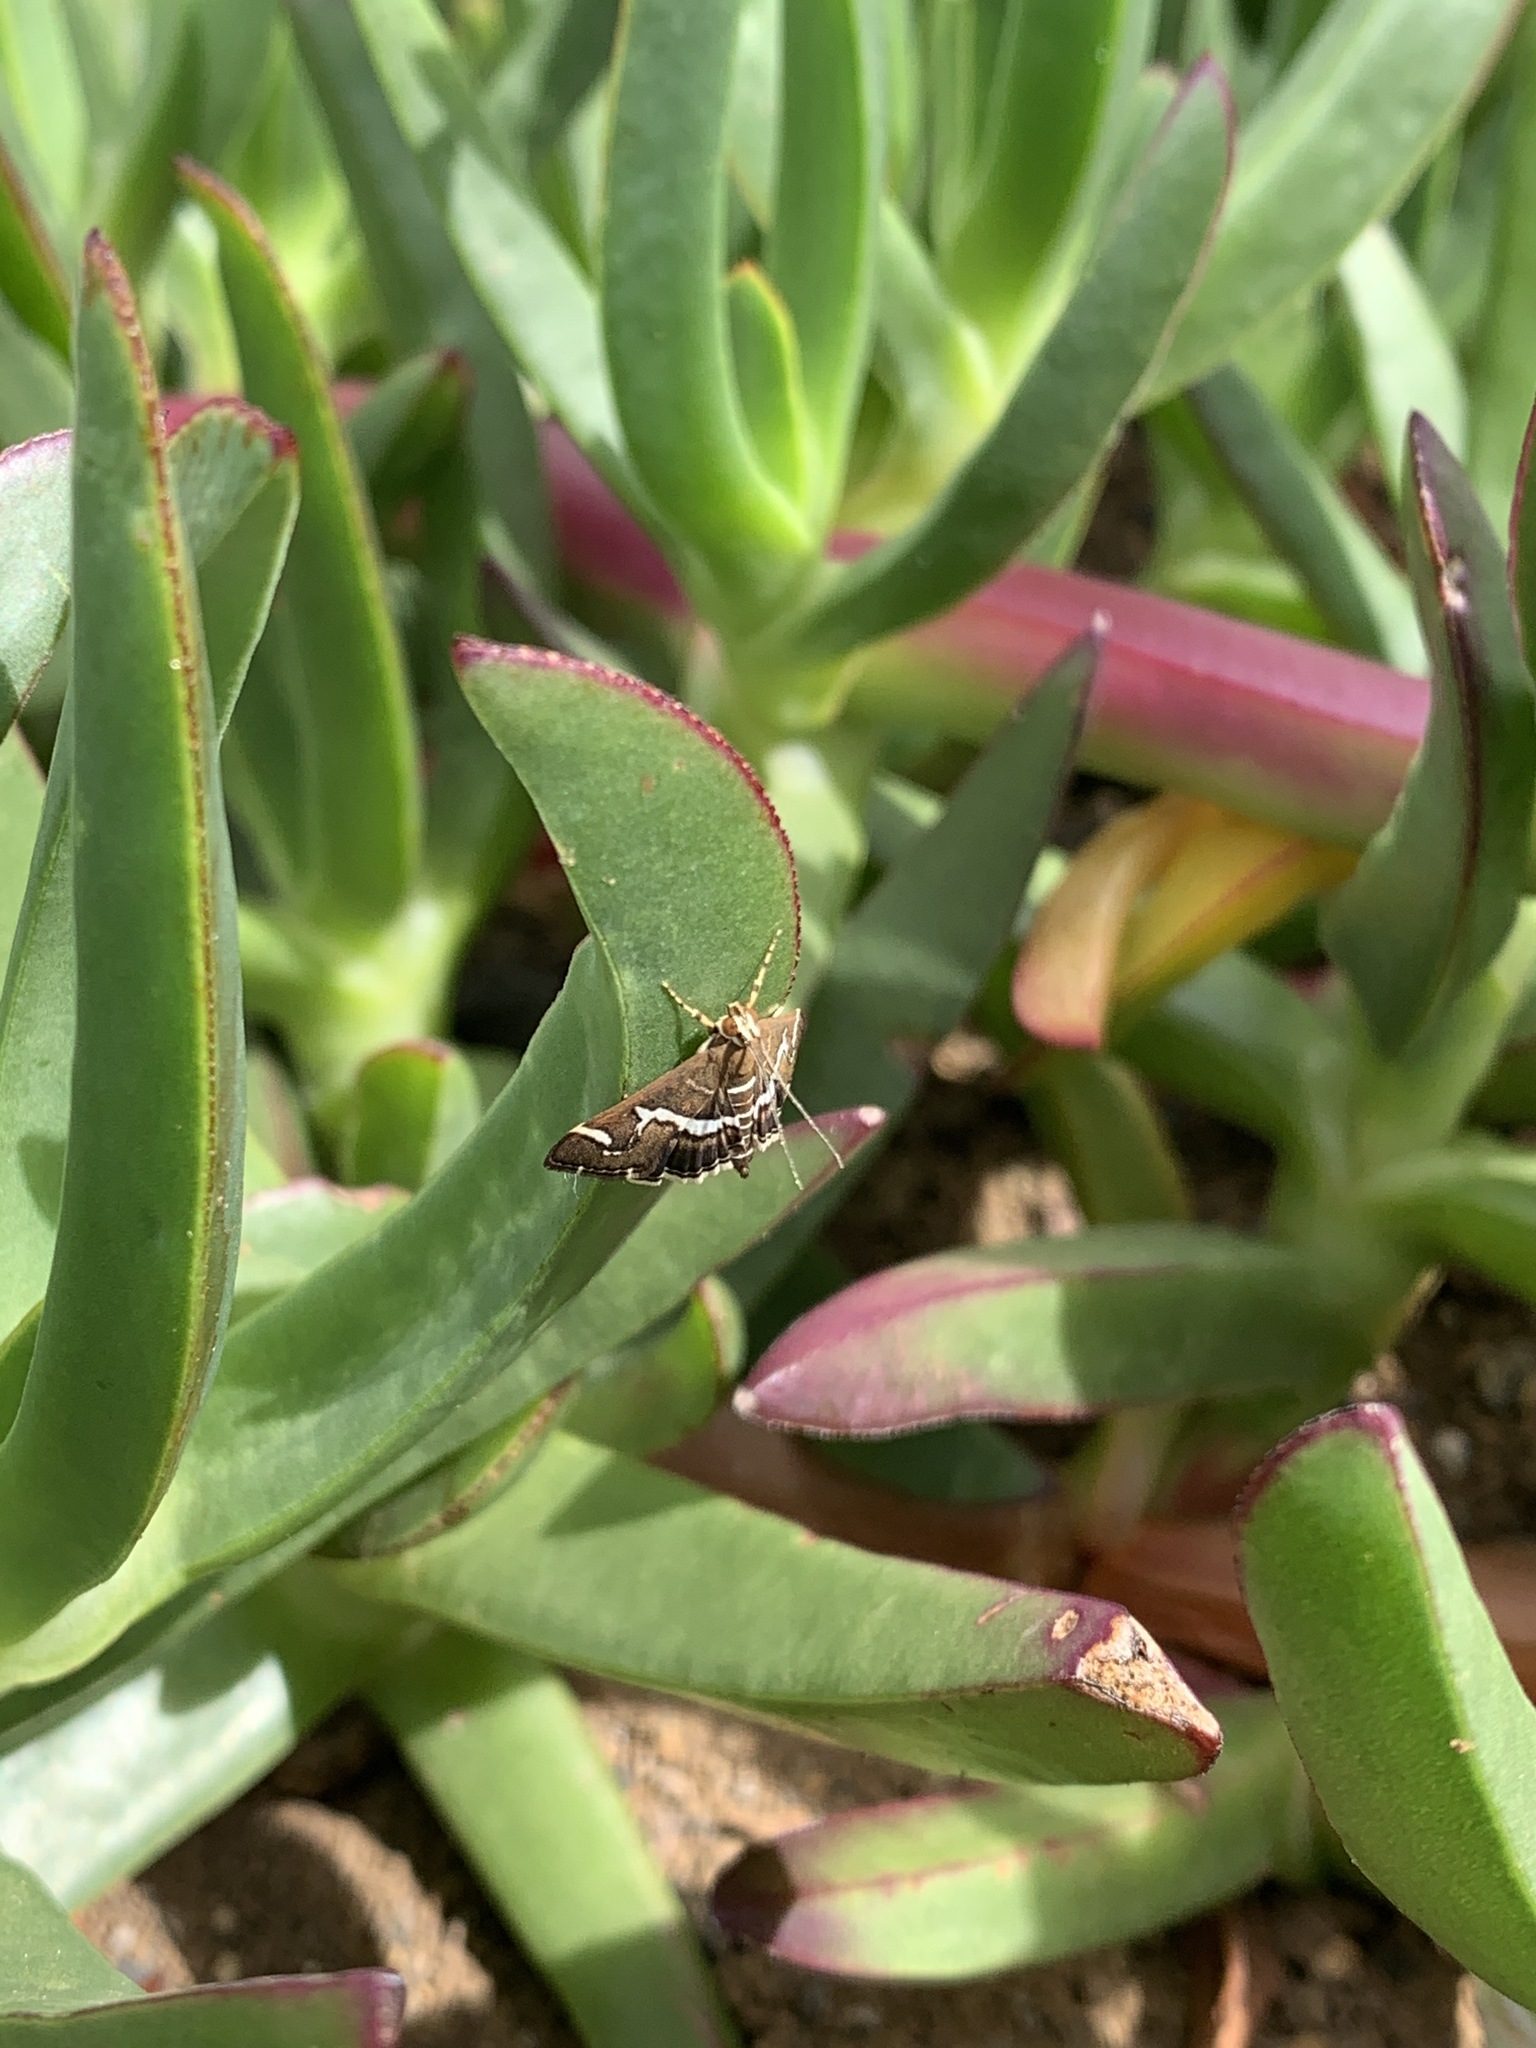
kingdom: Animalia
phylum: Arthropoda
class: Insecta
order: Lepidoptera
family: Crambidae
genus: Spoladea
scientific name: Spoladea recurvalis
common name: Beet webworm moth
